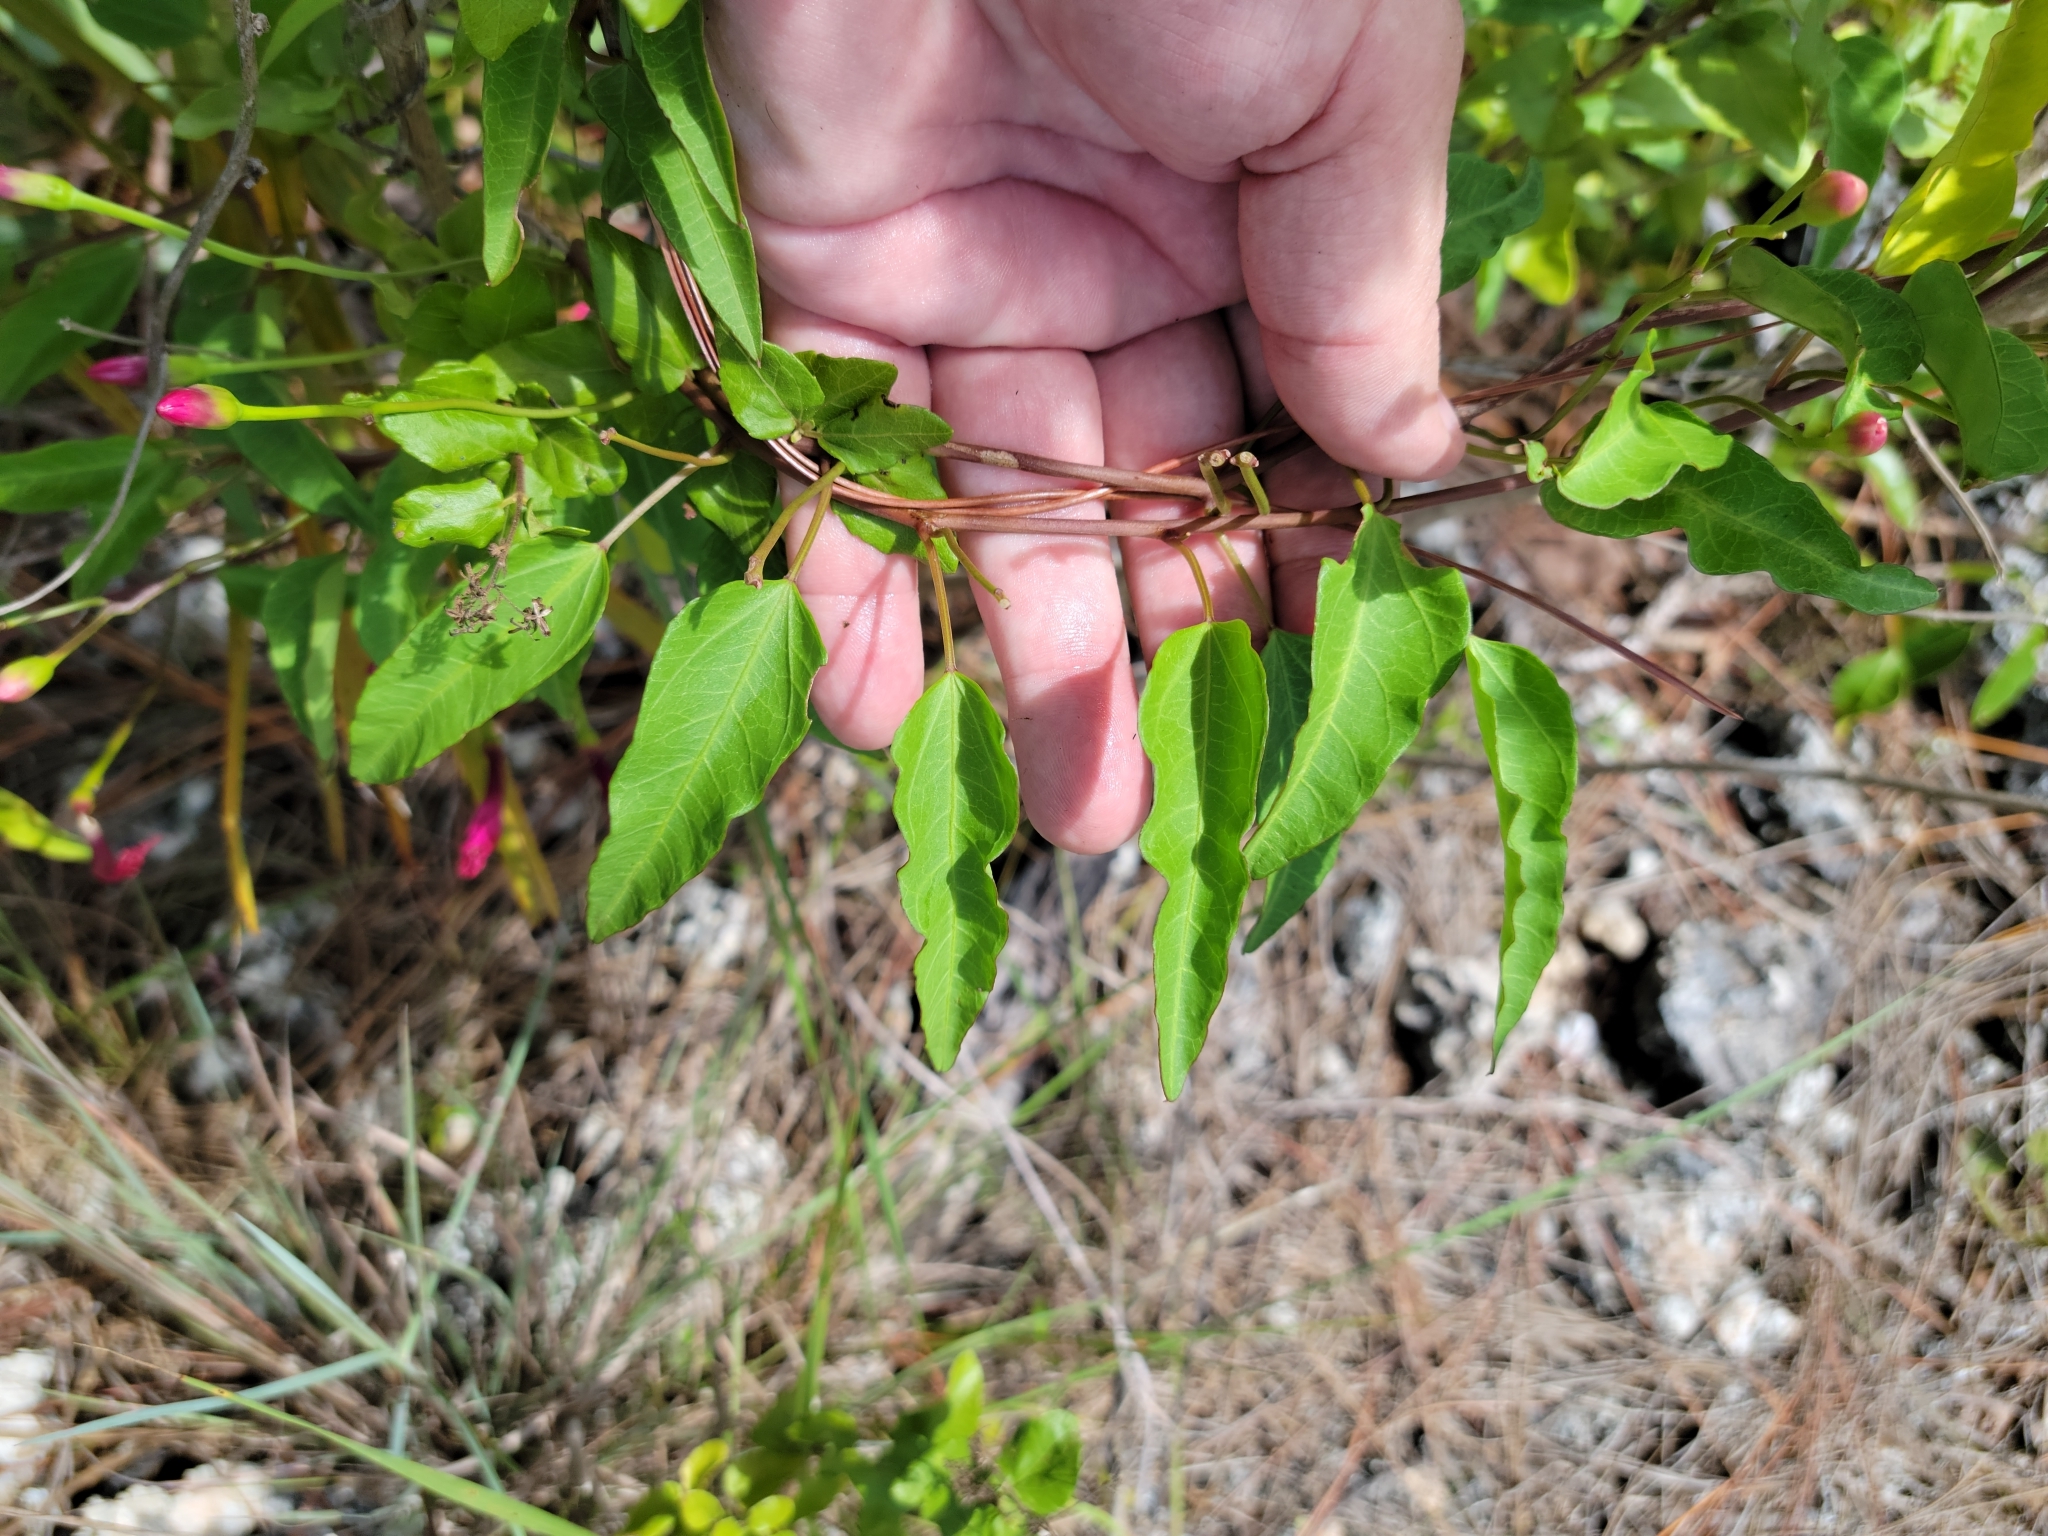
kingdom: Plantae
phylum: Tracheophyta
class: Magnoliopsida
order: Solanales
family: Convolvulaceae
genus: Ipomoea
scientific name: Ipomoea microdactyla
